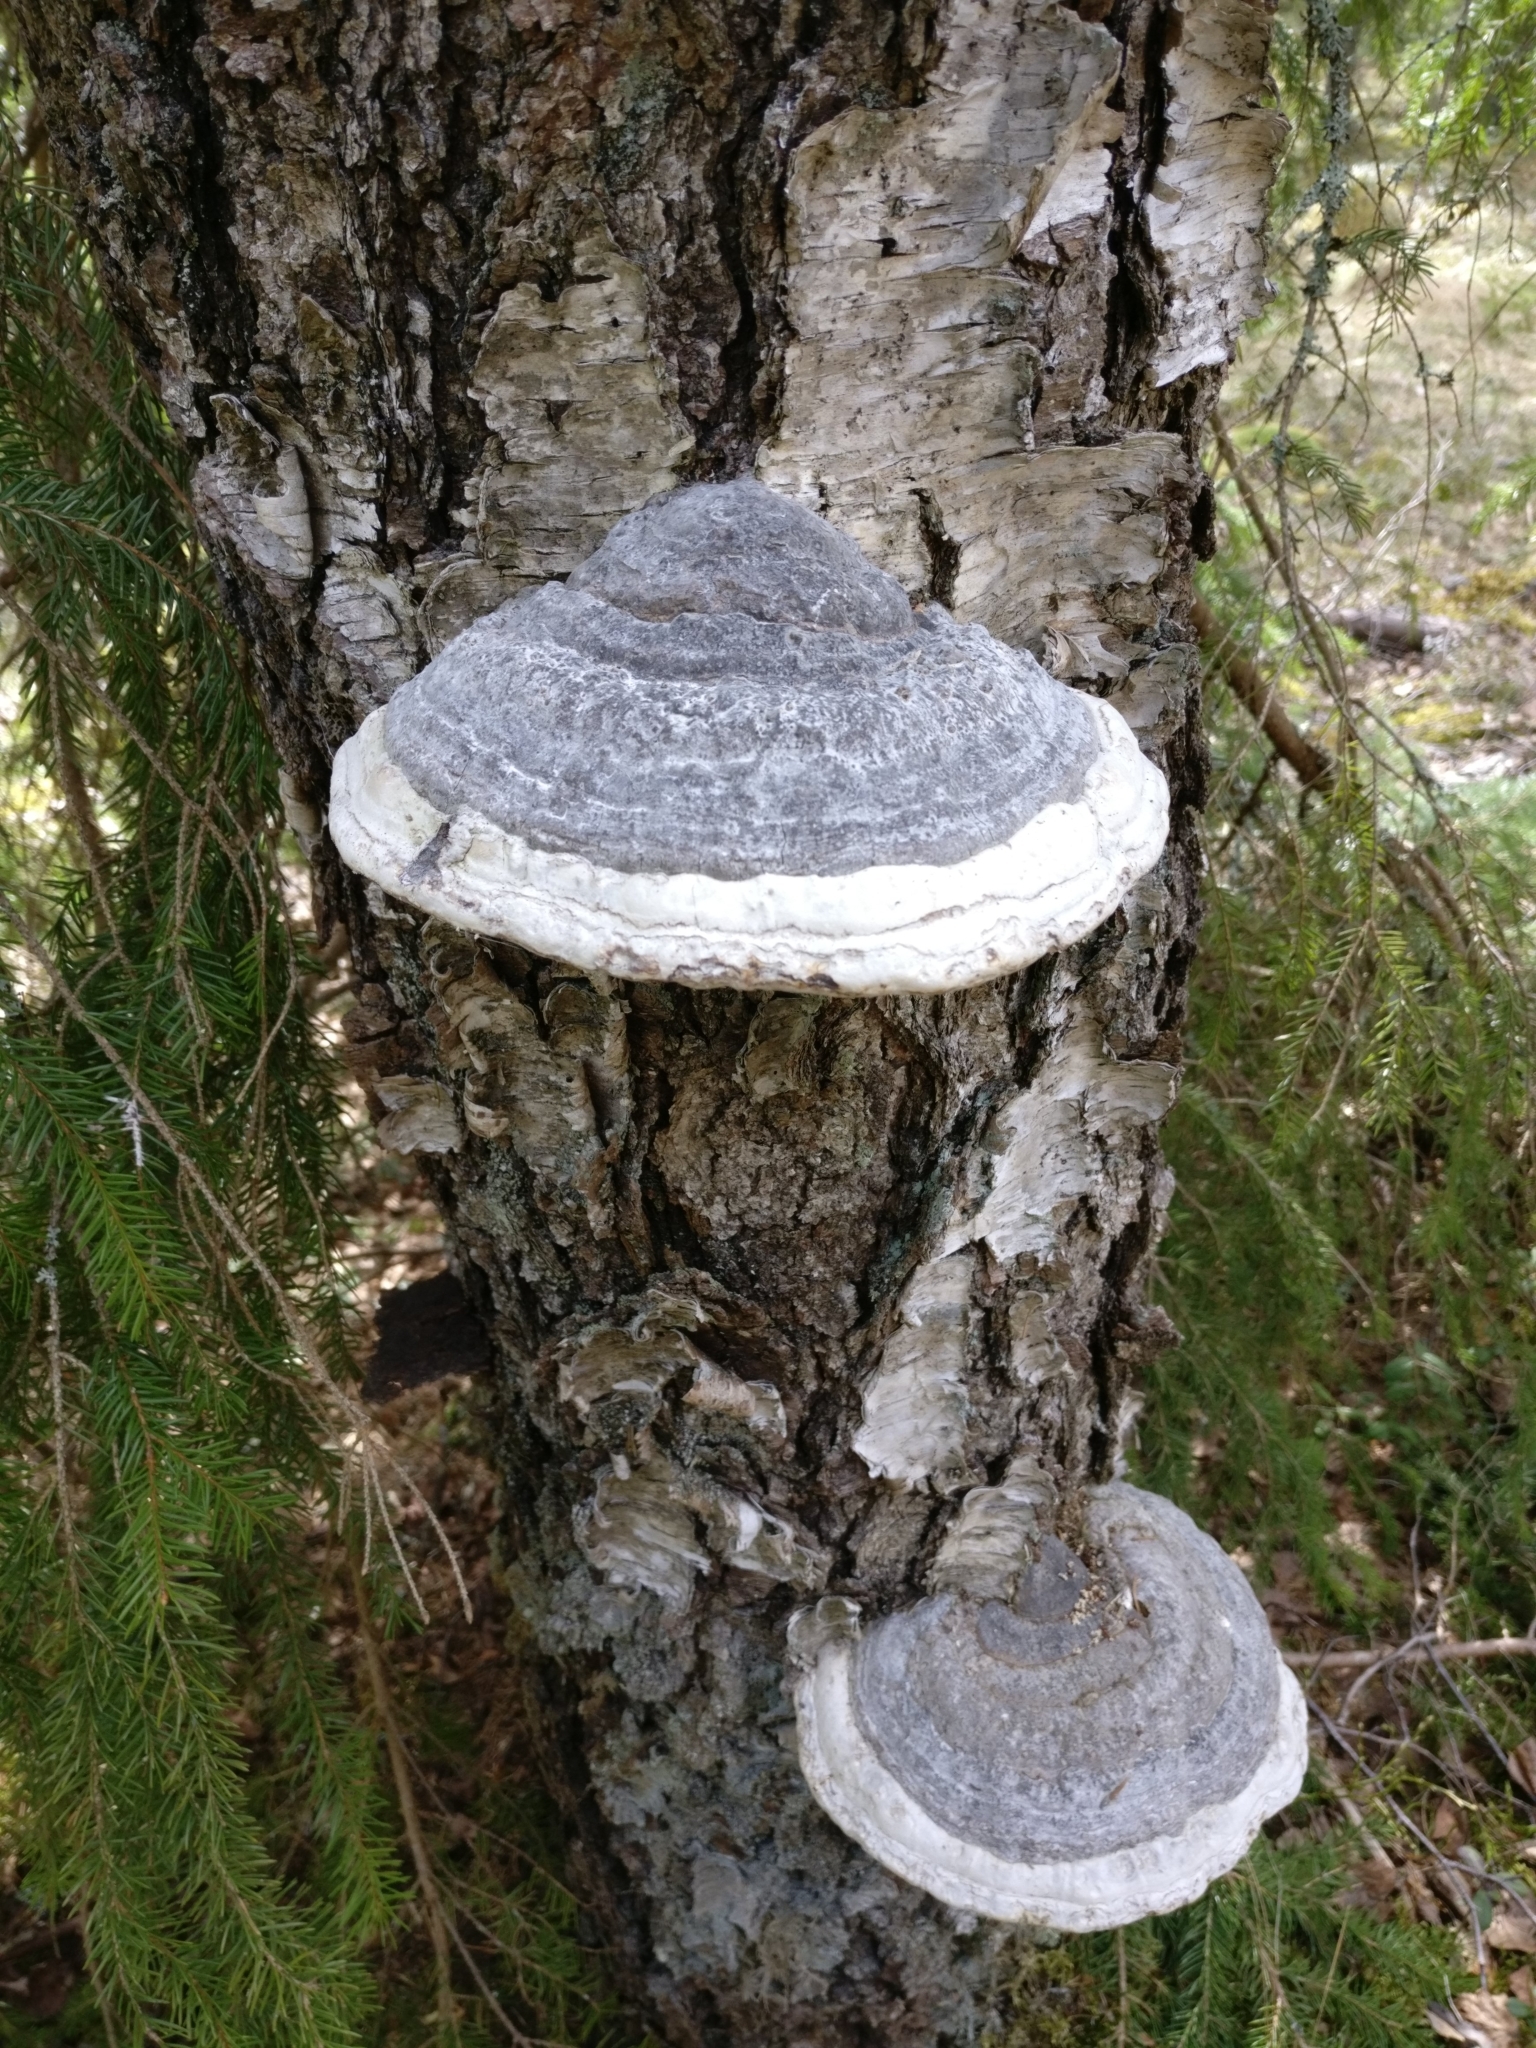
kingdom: Fungi
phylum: Basidiomycota
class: Agaricomycetes
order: Polyporales
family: Polyporaceae
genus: Fomes
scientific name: Fomes fomentarius
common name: Hoof fungus
